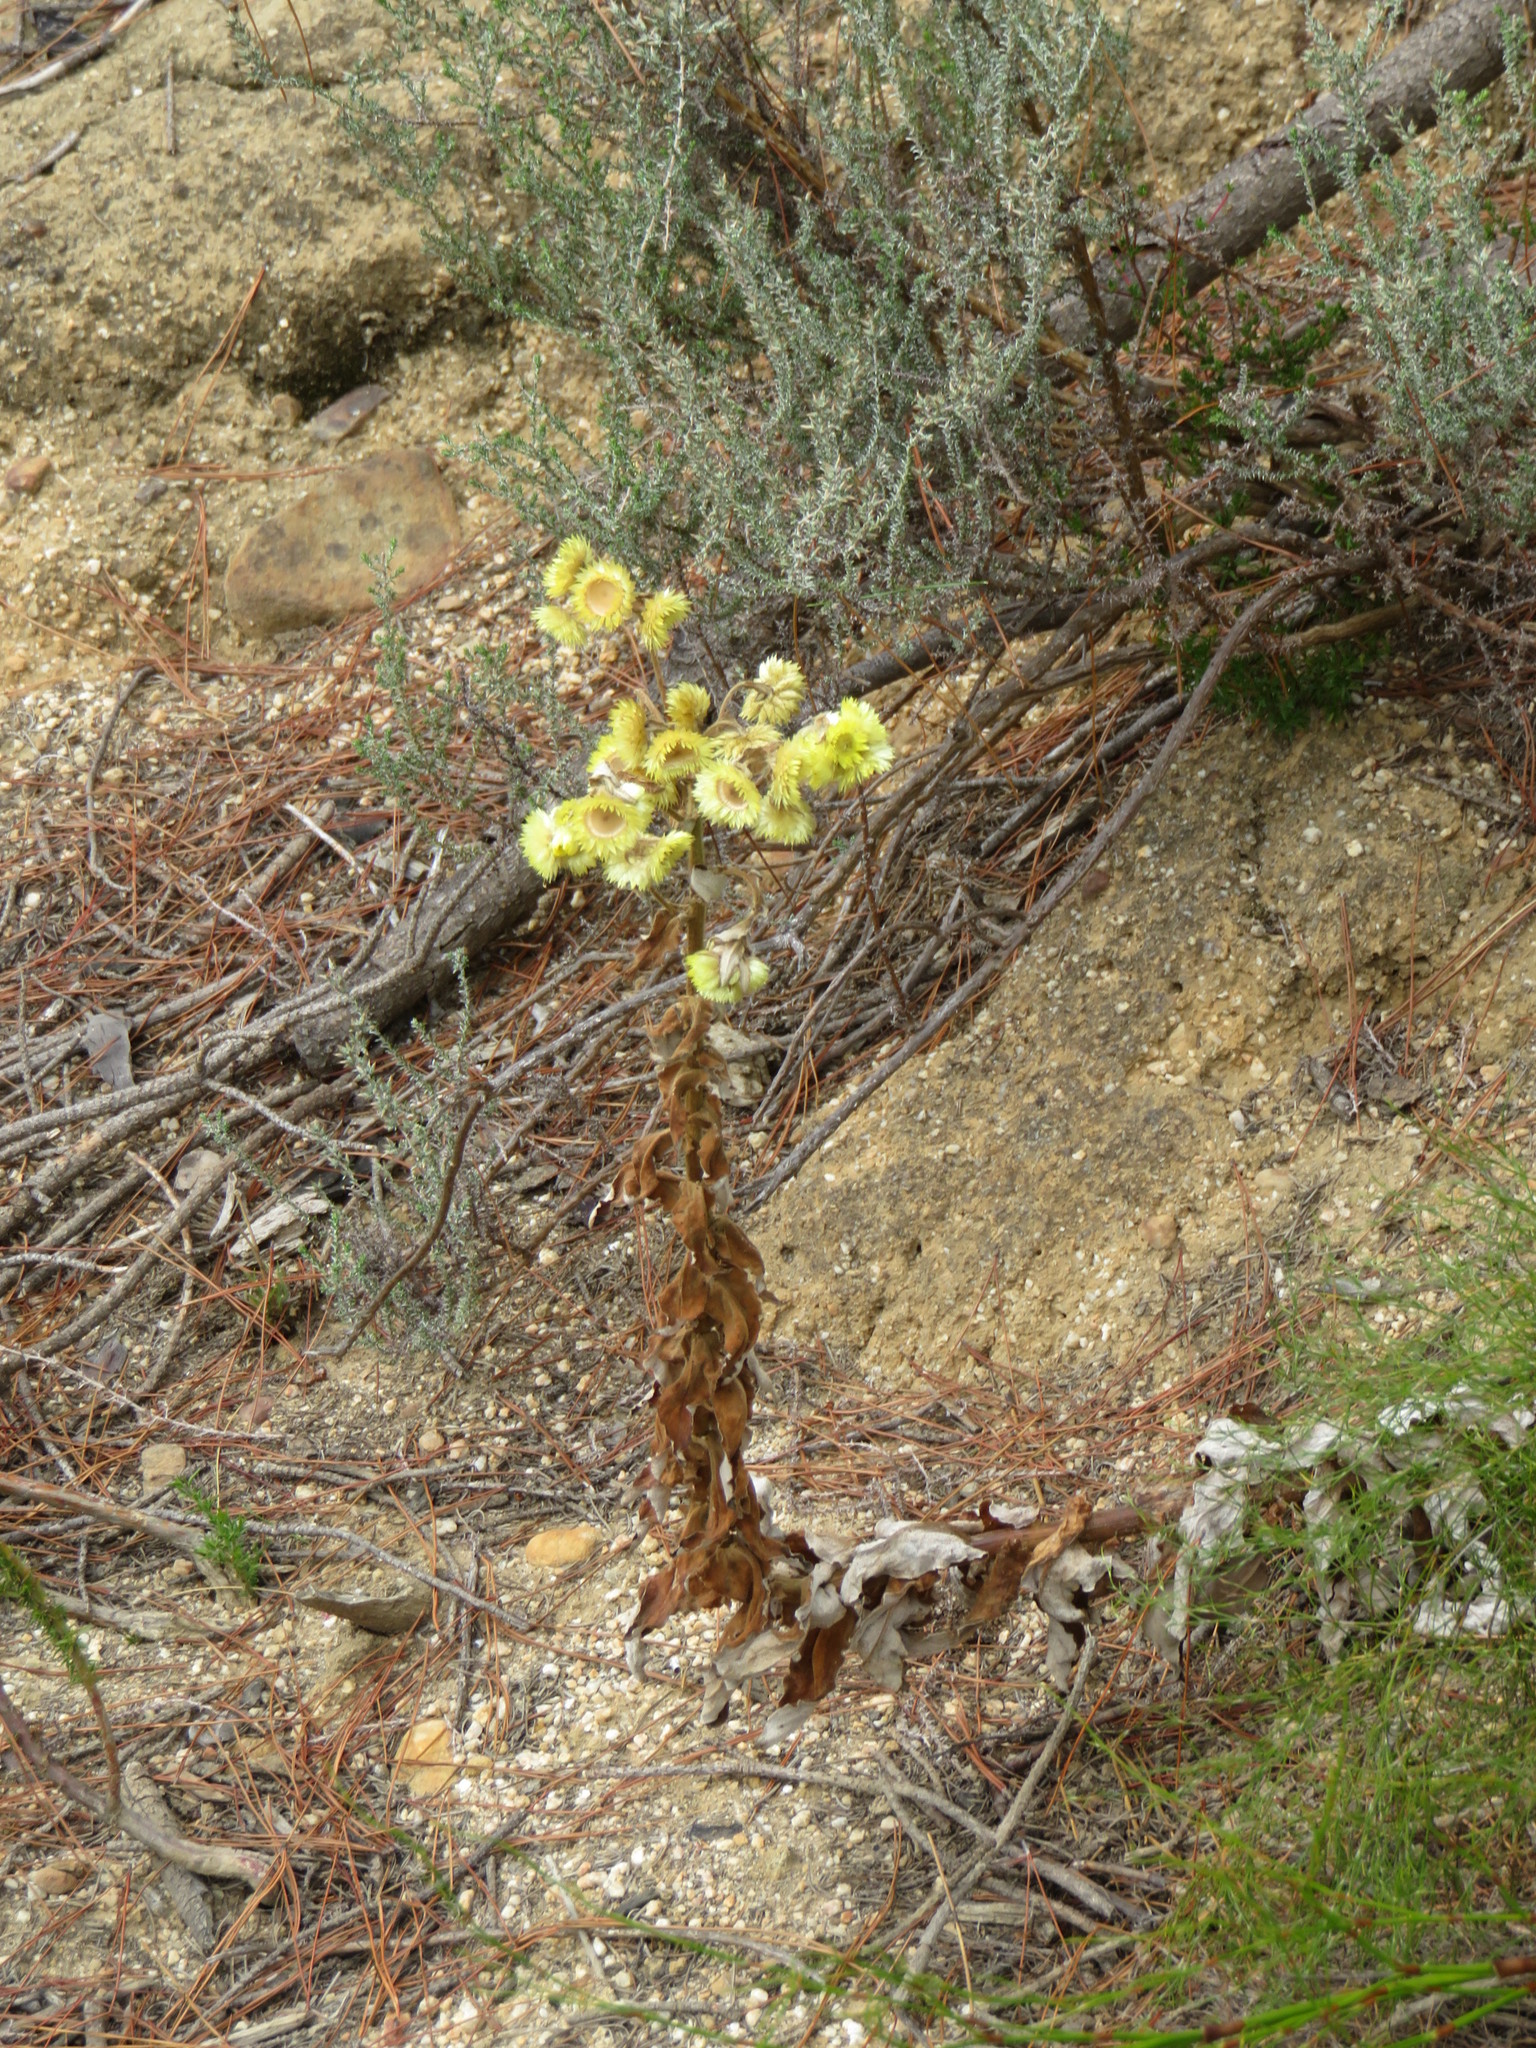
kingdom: Plantae
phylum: Tracheophyta
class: Magnoliopsida
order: Asterales
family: Asteraceae
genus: Helichrysum
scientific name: Helichrysum foetidum
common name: Stinking everlasting
